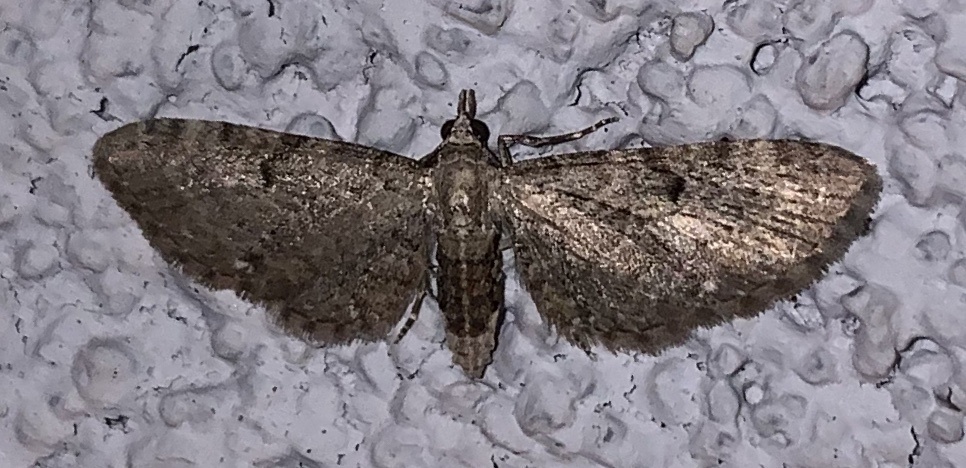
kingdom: Animalia
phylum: Arthropoda
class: Insecta
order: Lepidoptera
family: Geometridae
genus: Eupithecia
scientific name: Eupithecia miserulata
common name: Common eupithecia
